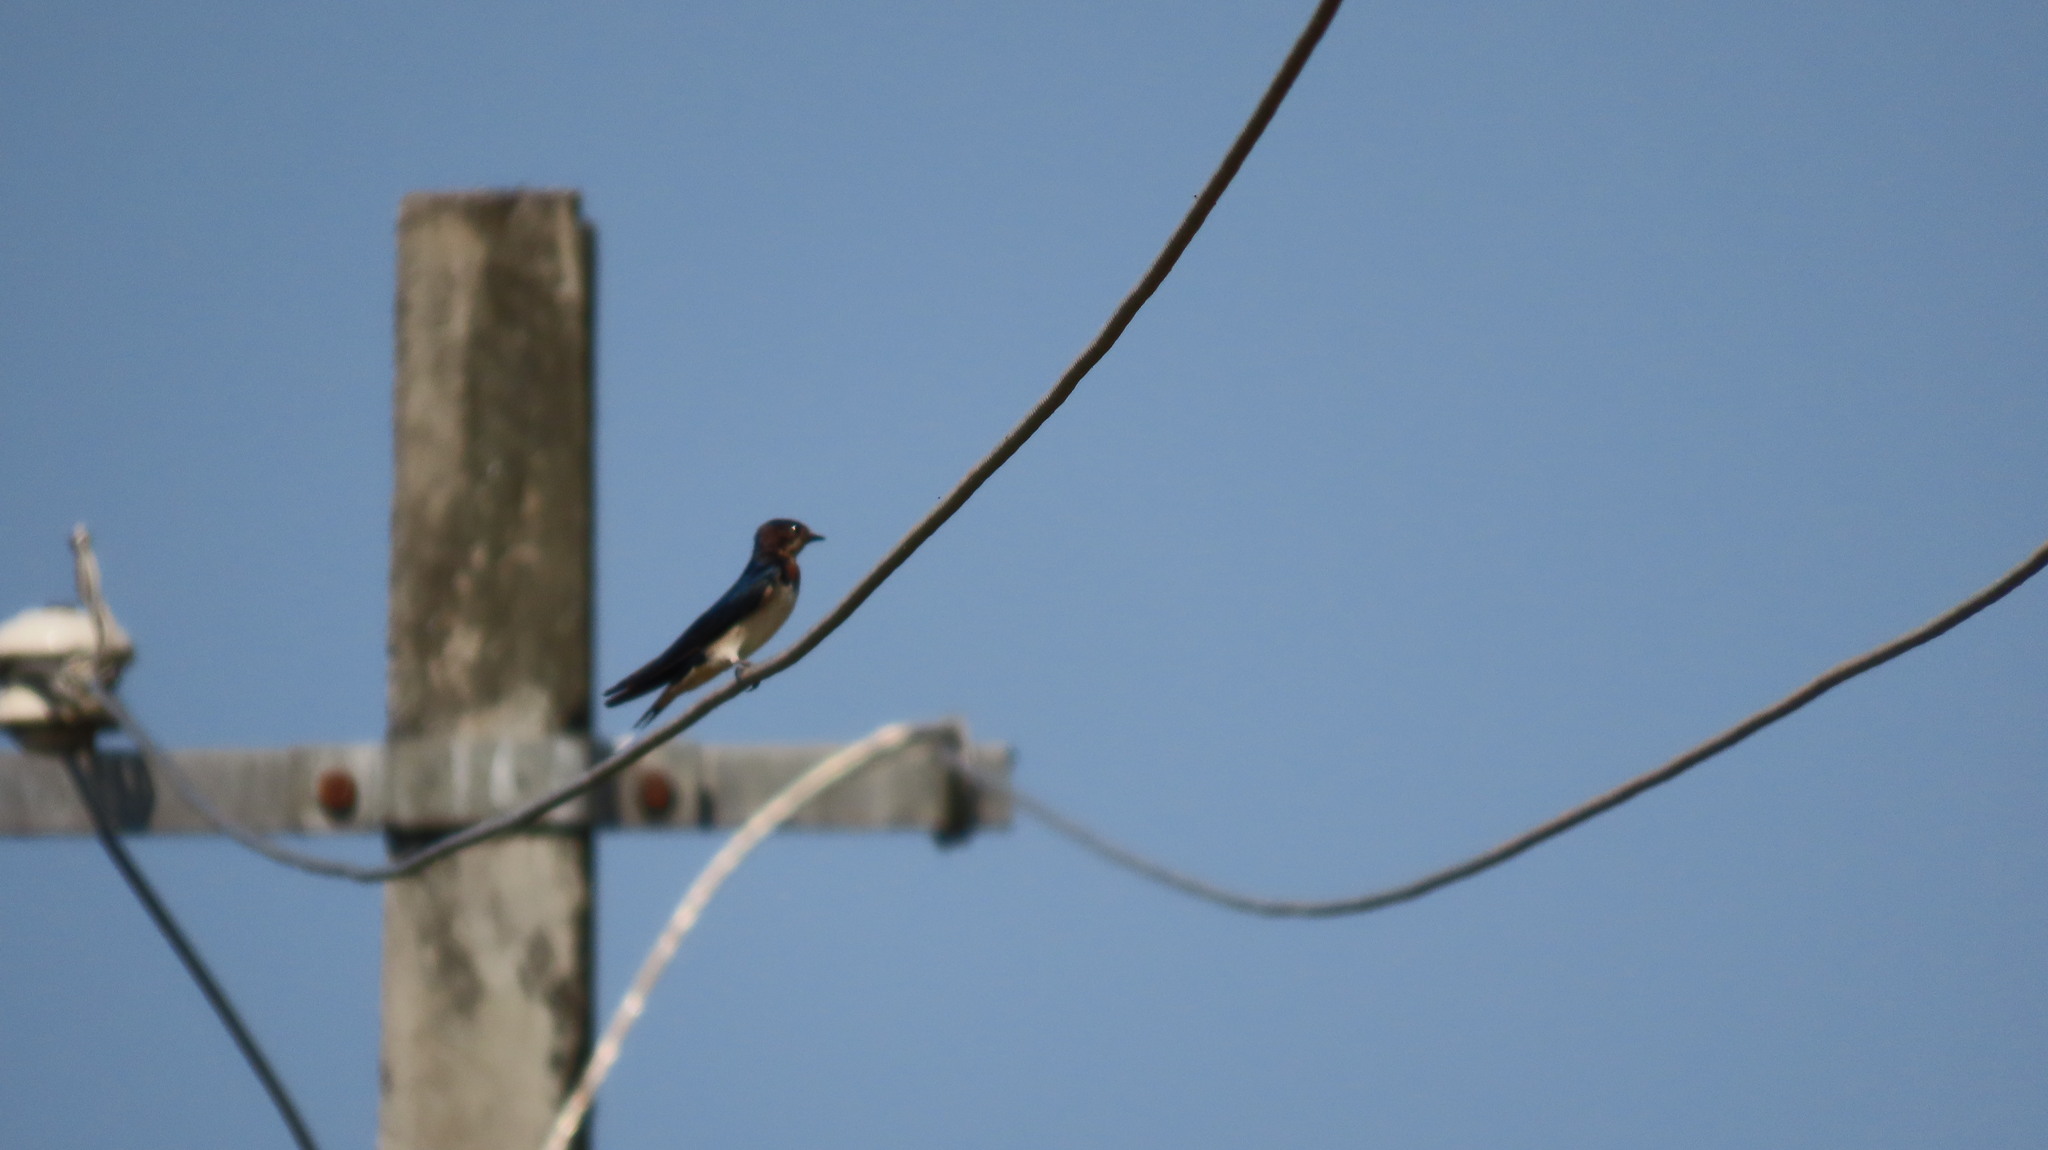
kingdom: Animalia
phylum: Chordata
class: Aves
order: Passeriformes
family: Hirundinidae
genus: Hirundo
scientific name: Hirundo rustica
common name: Barn swallow
